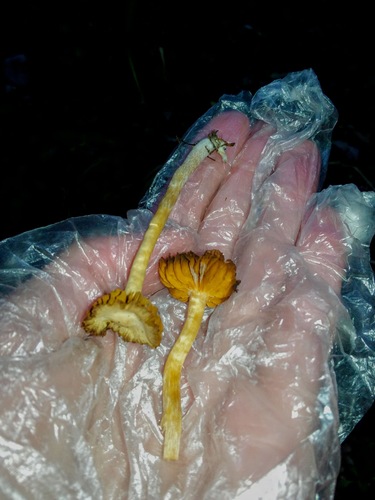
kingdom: Fungi
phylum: Basidiomycota
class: Agaricomycetes
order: Agaricales
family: Cortinariaceae
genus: Cortinarius
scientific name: Cortinarius
